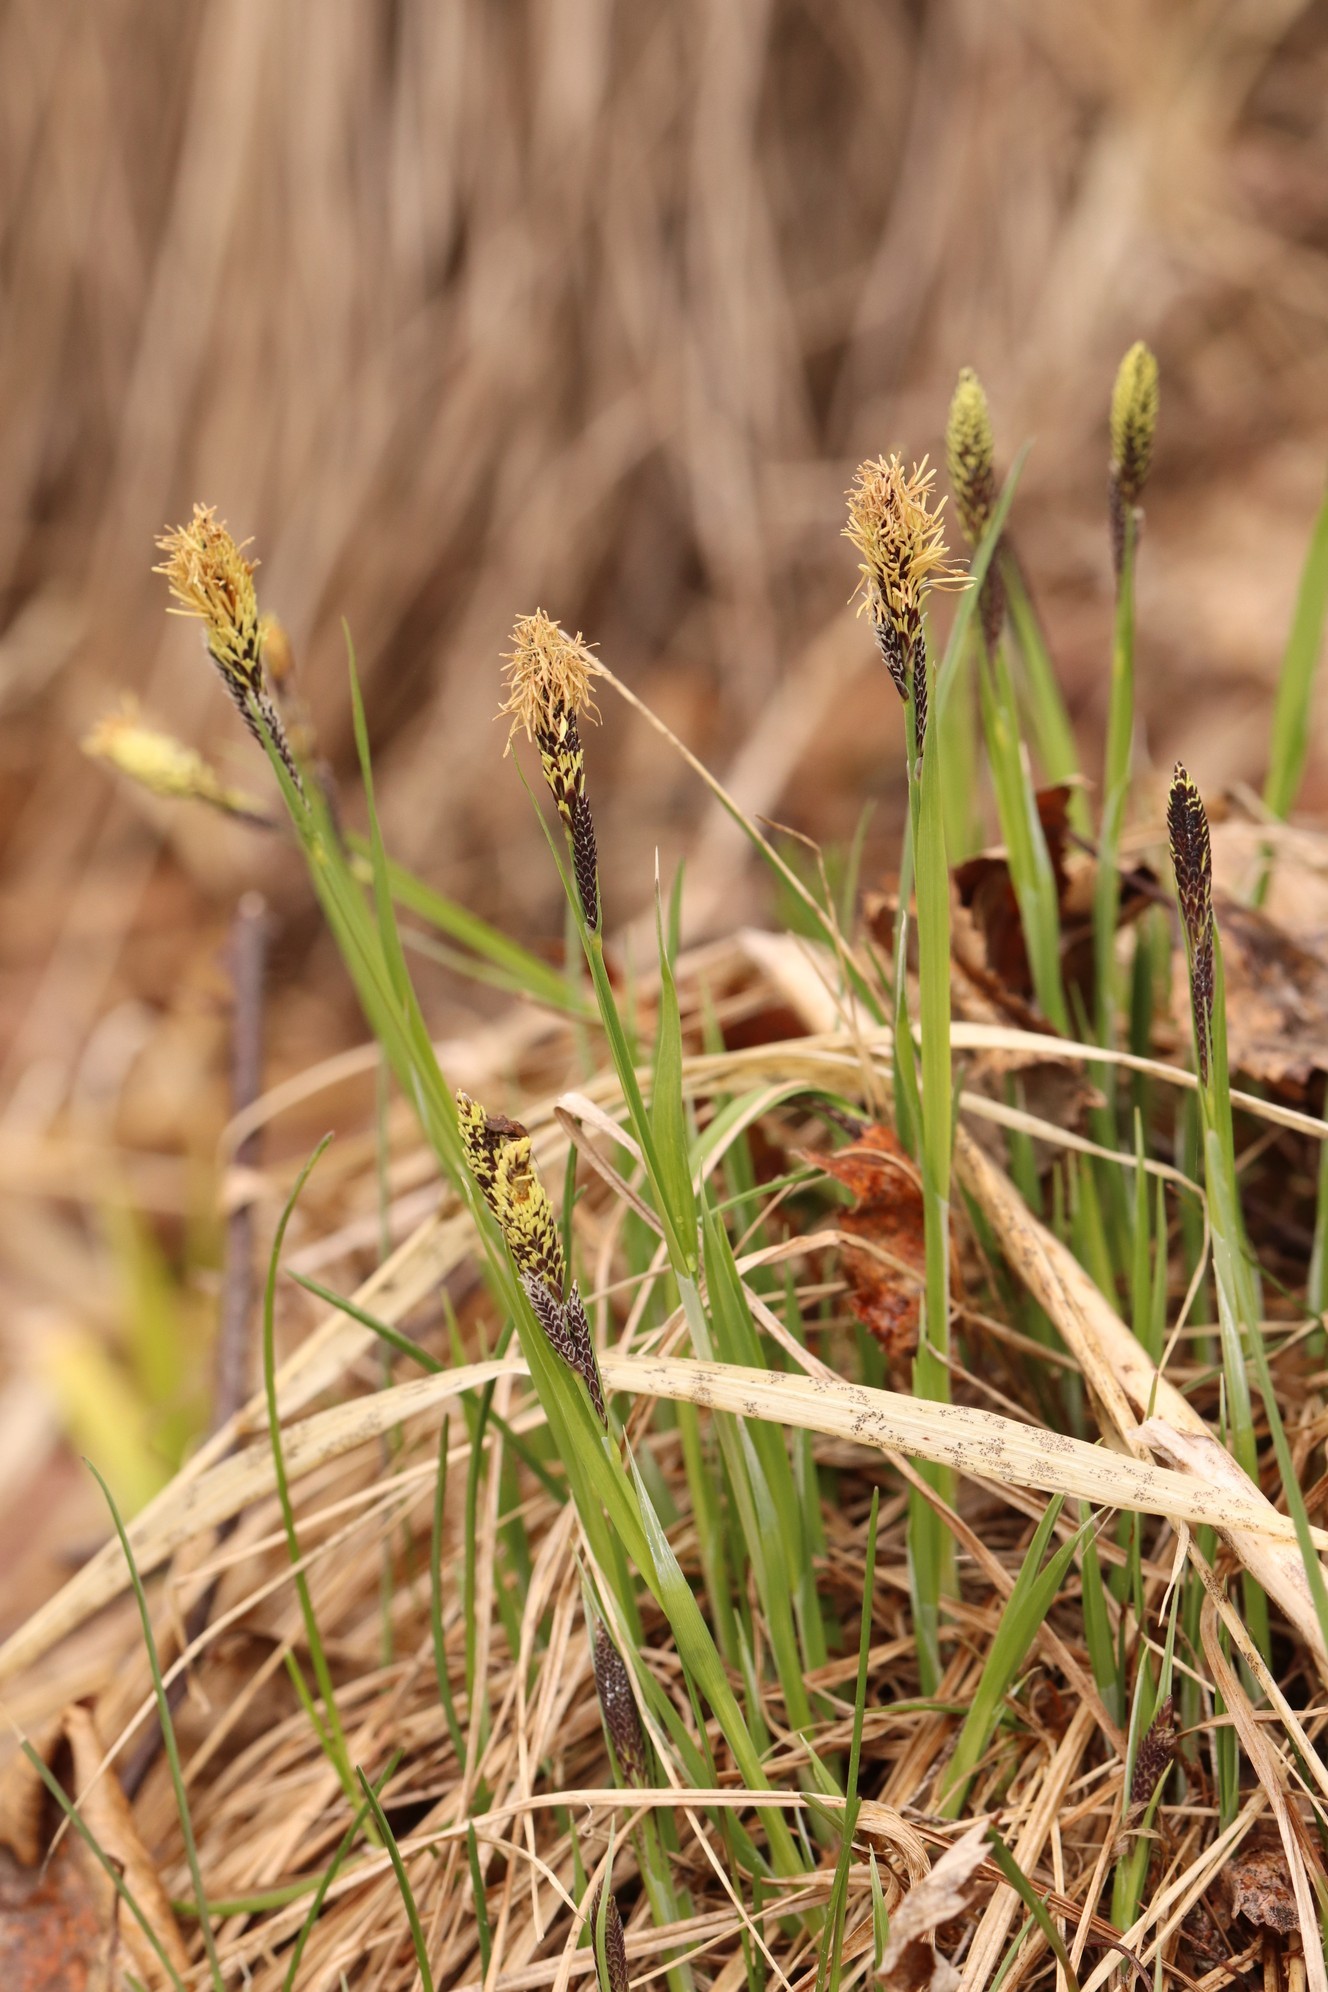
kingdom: Plantae
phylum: Tracheophyta
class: Liliopsida
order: Poales
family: Cyperaceae
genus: Carex
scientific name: Carex cespitosa
